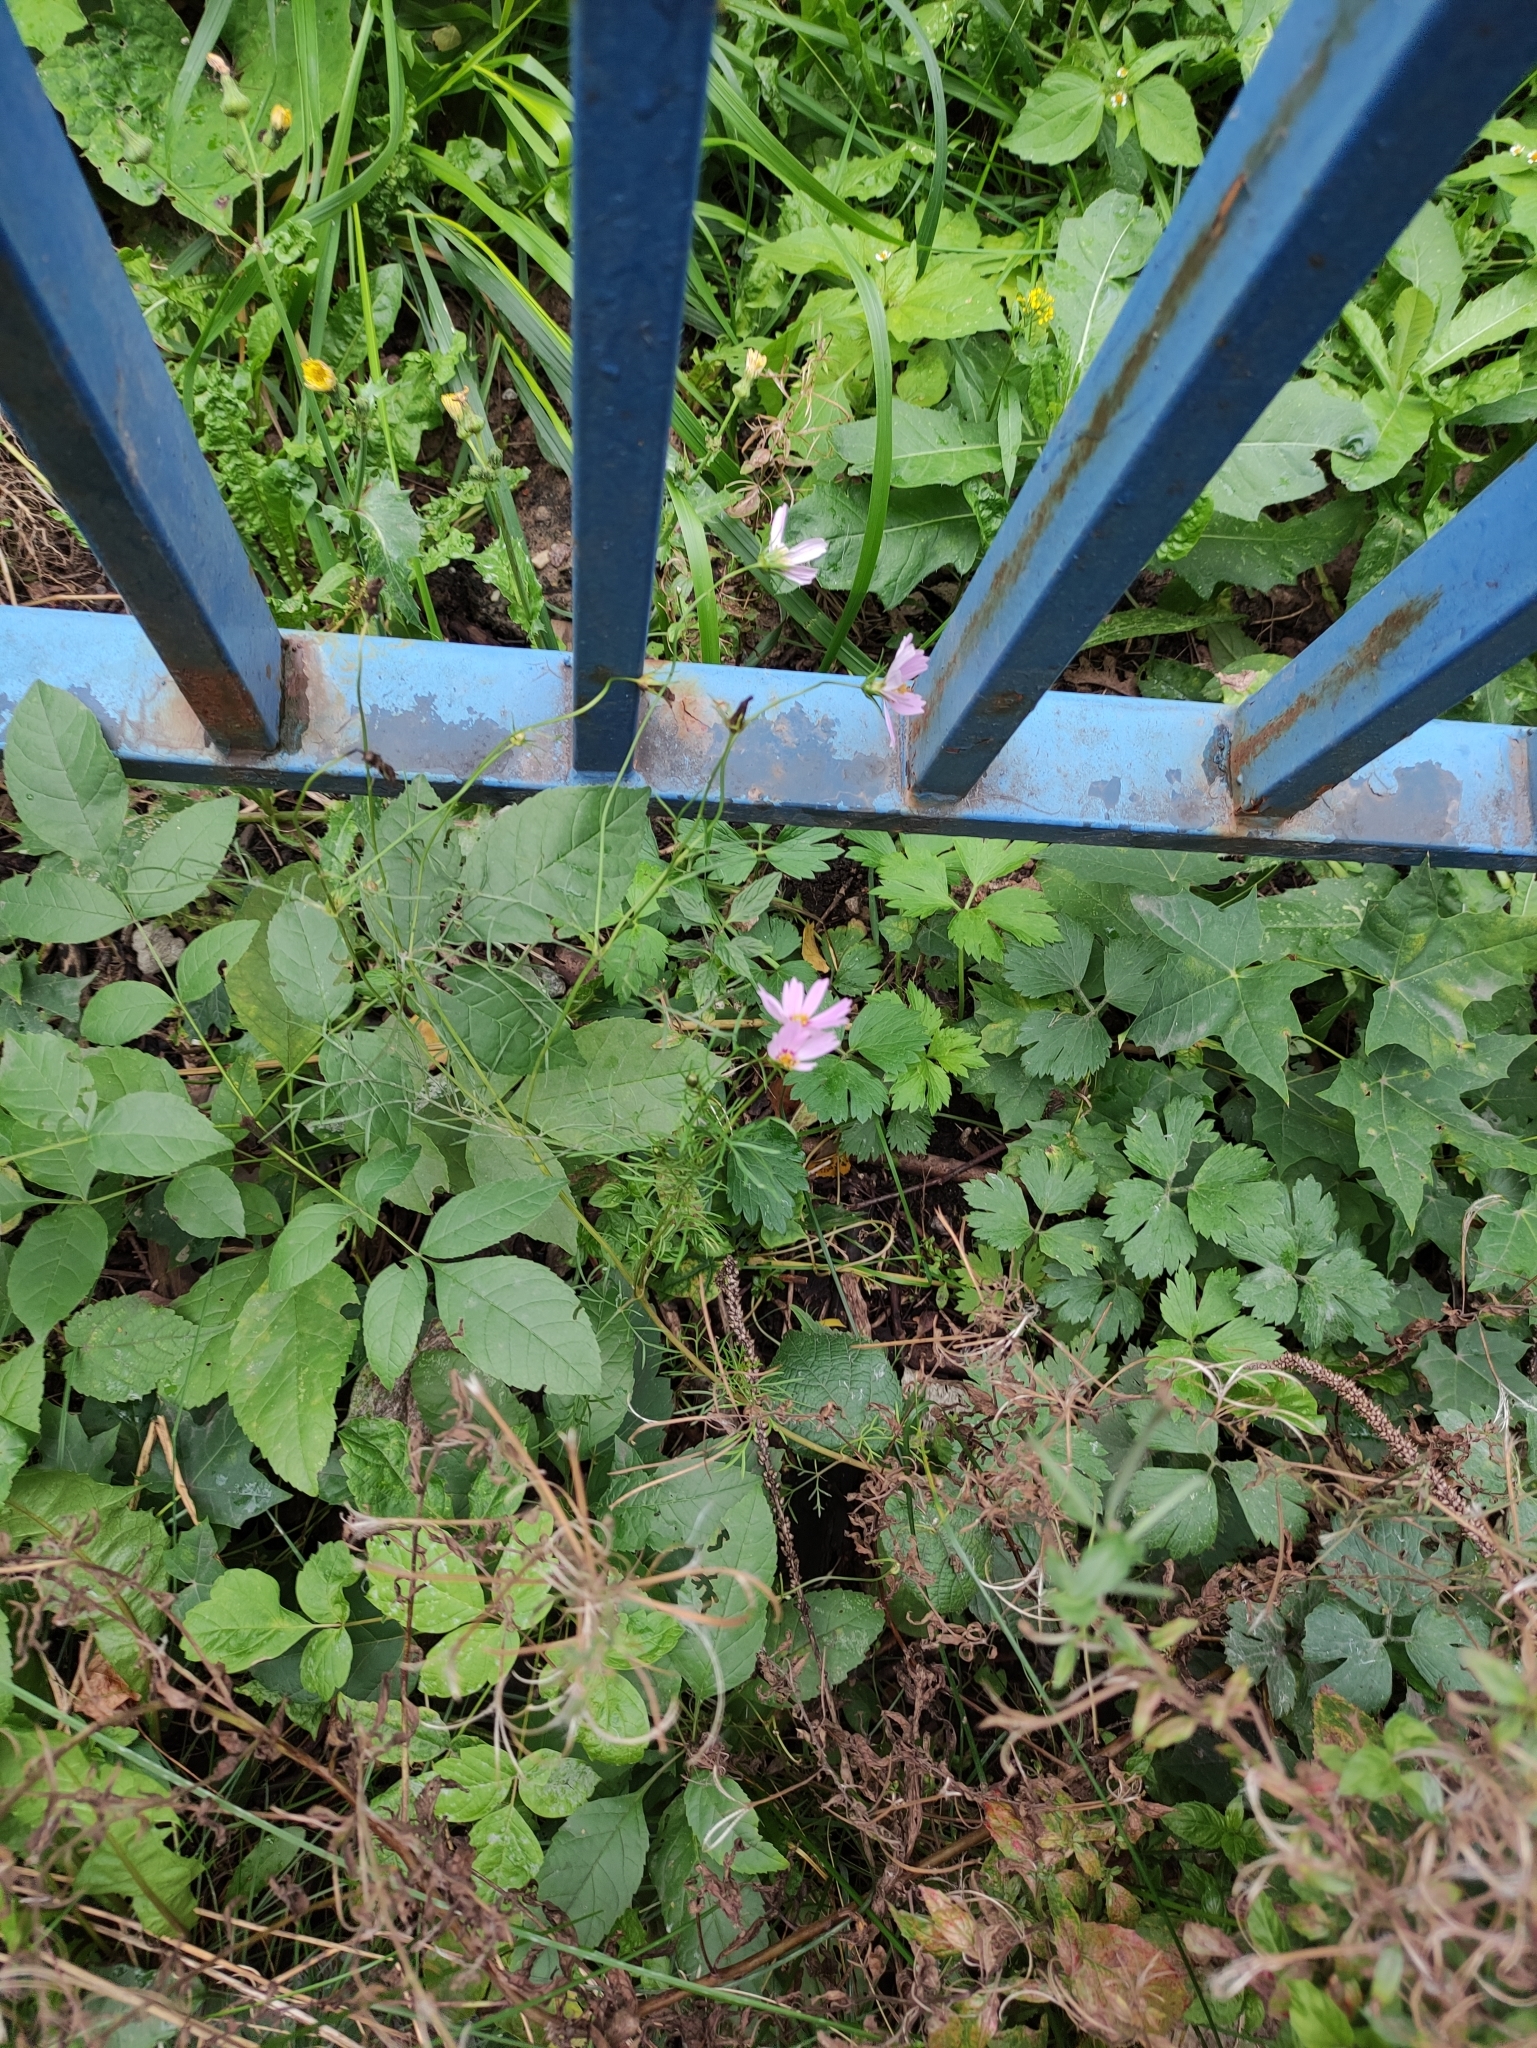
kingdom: Plantae
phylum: Tracheophyta
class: Magnoliopsida
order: Asterales
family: Asteraceae
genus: Cosmos
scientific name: Cosmos bipinnatus
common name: Garden cosmos
